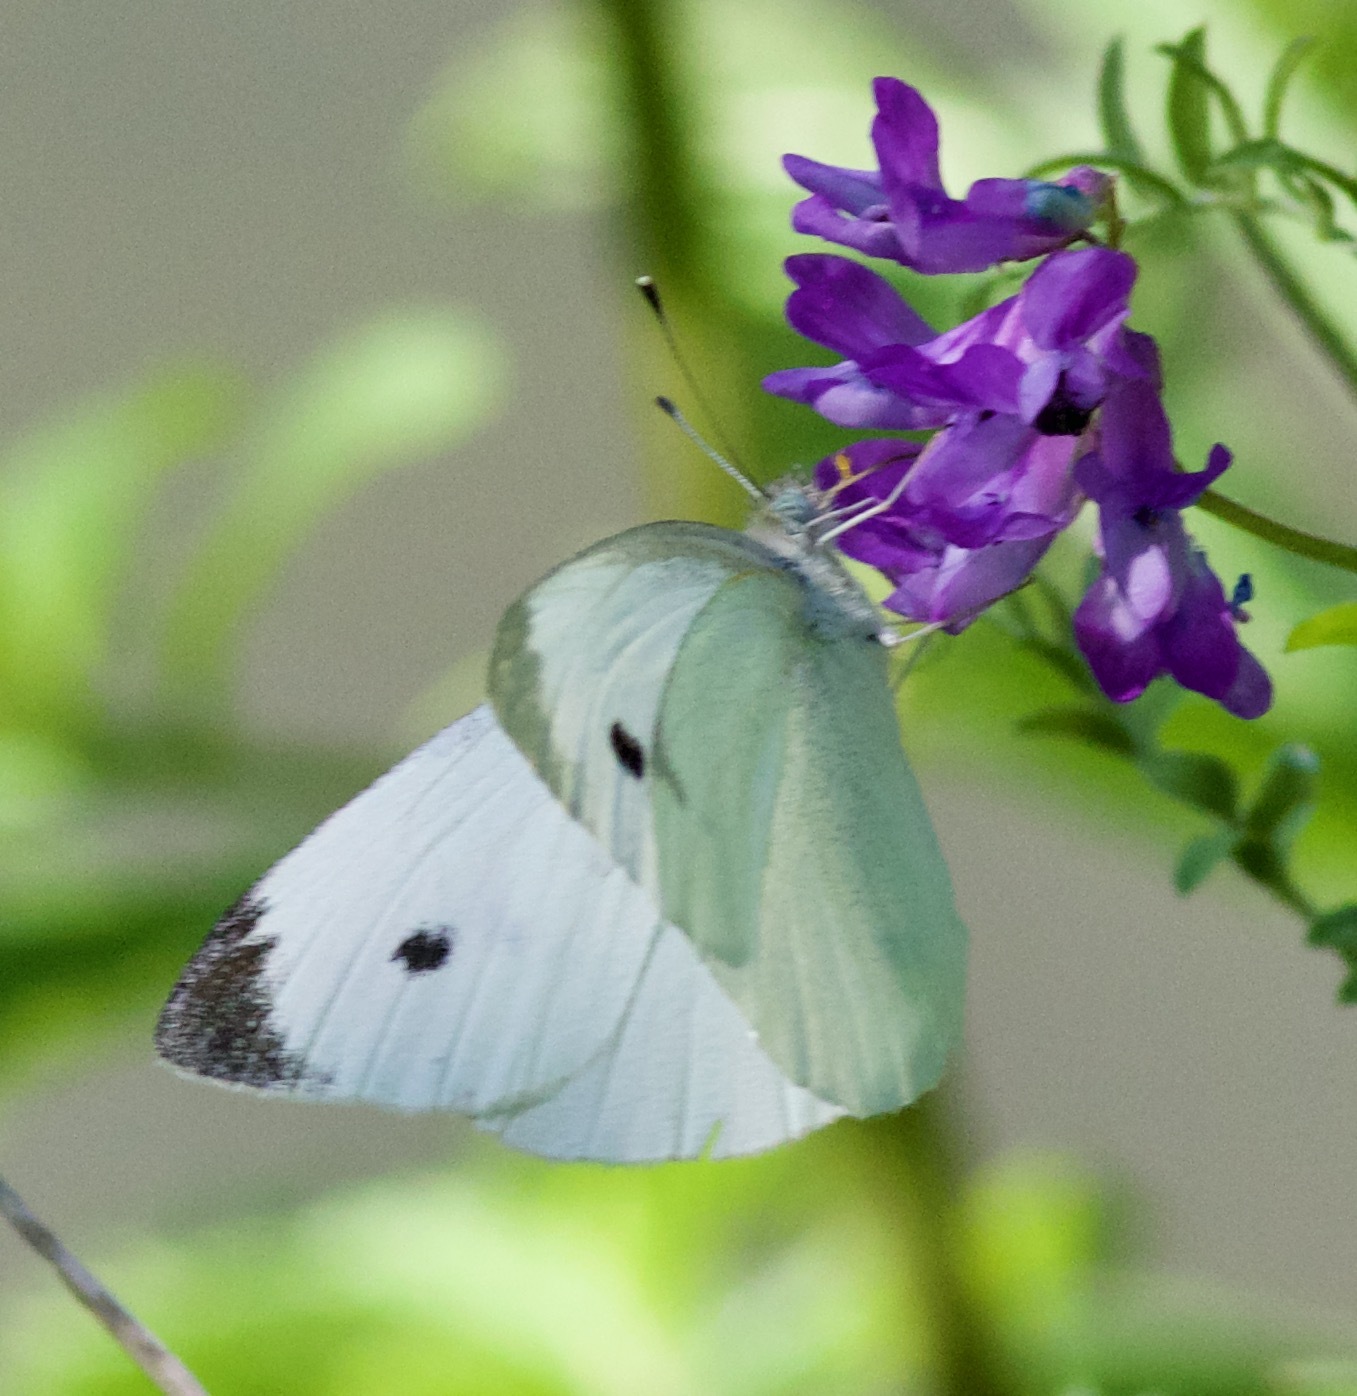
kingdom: Animalia
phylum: Arthropoda
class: Insecta
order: Lepidoptera
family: Pieridae
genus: Pieris
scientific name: Pieris rapae
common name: Small white
